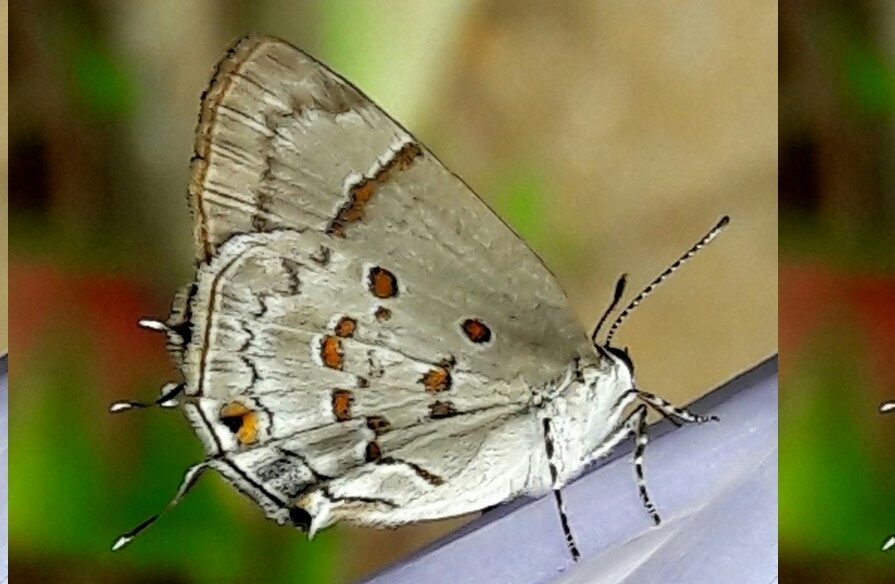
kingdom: Animalia
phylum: Arthropoda
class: Insecta
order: Lepidoptera
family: Lycaenidae
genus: Tmolus
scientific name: Tmolus echion
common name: Red-spotted hairstreak
